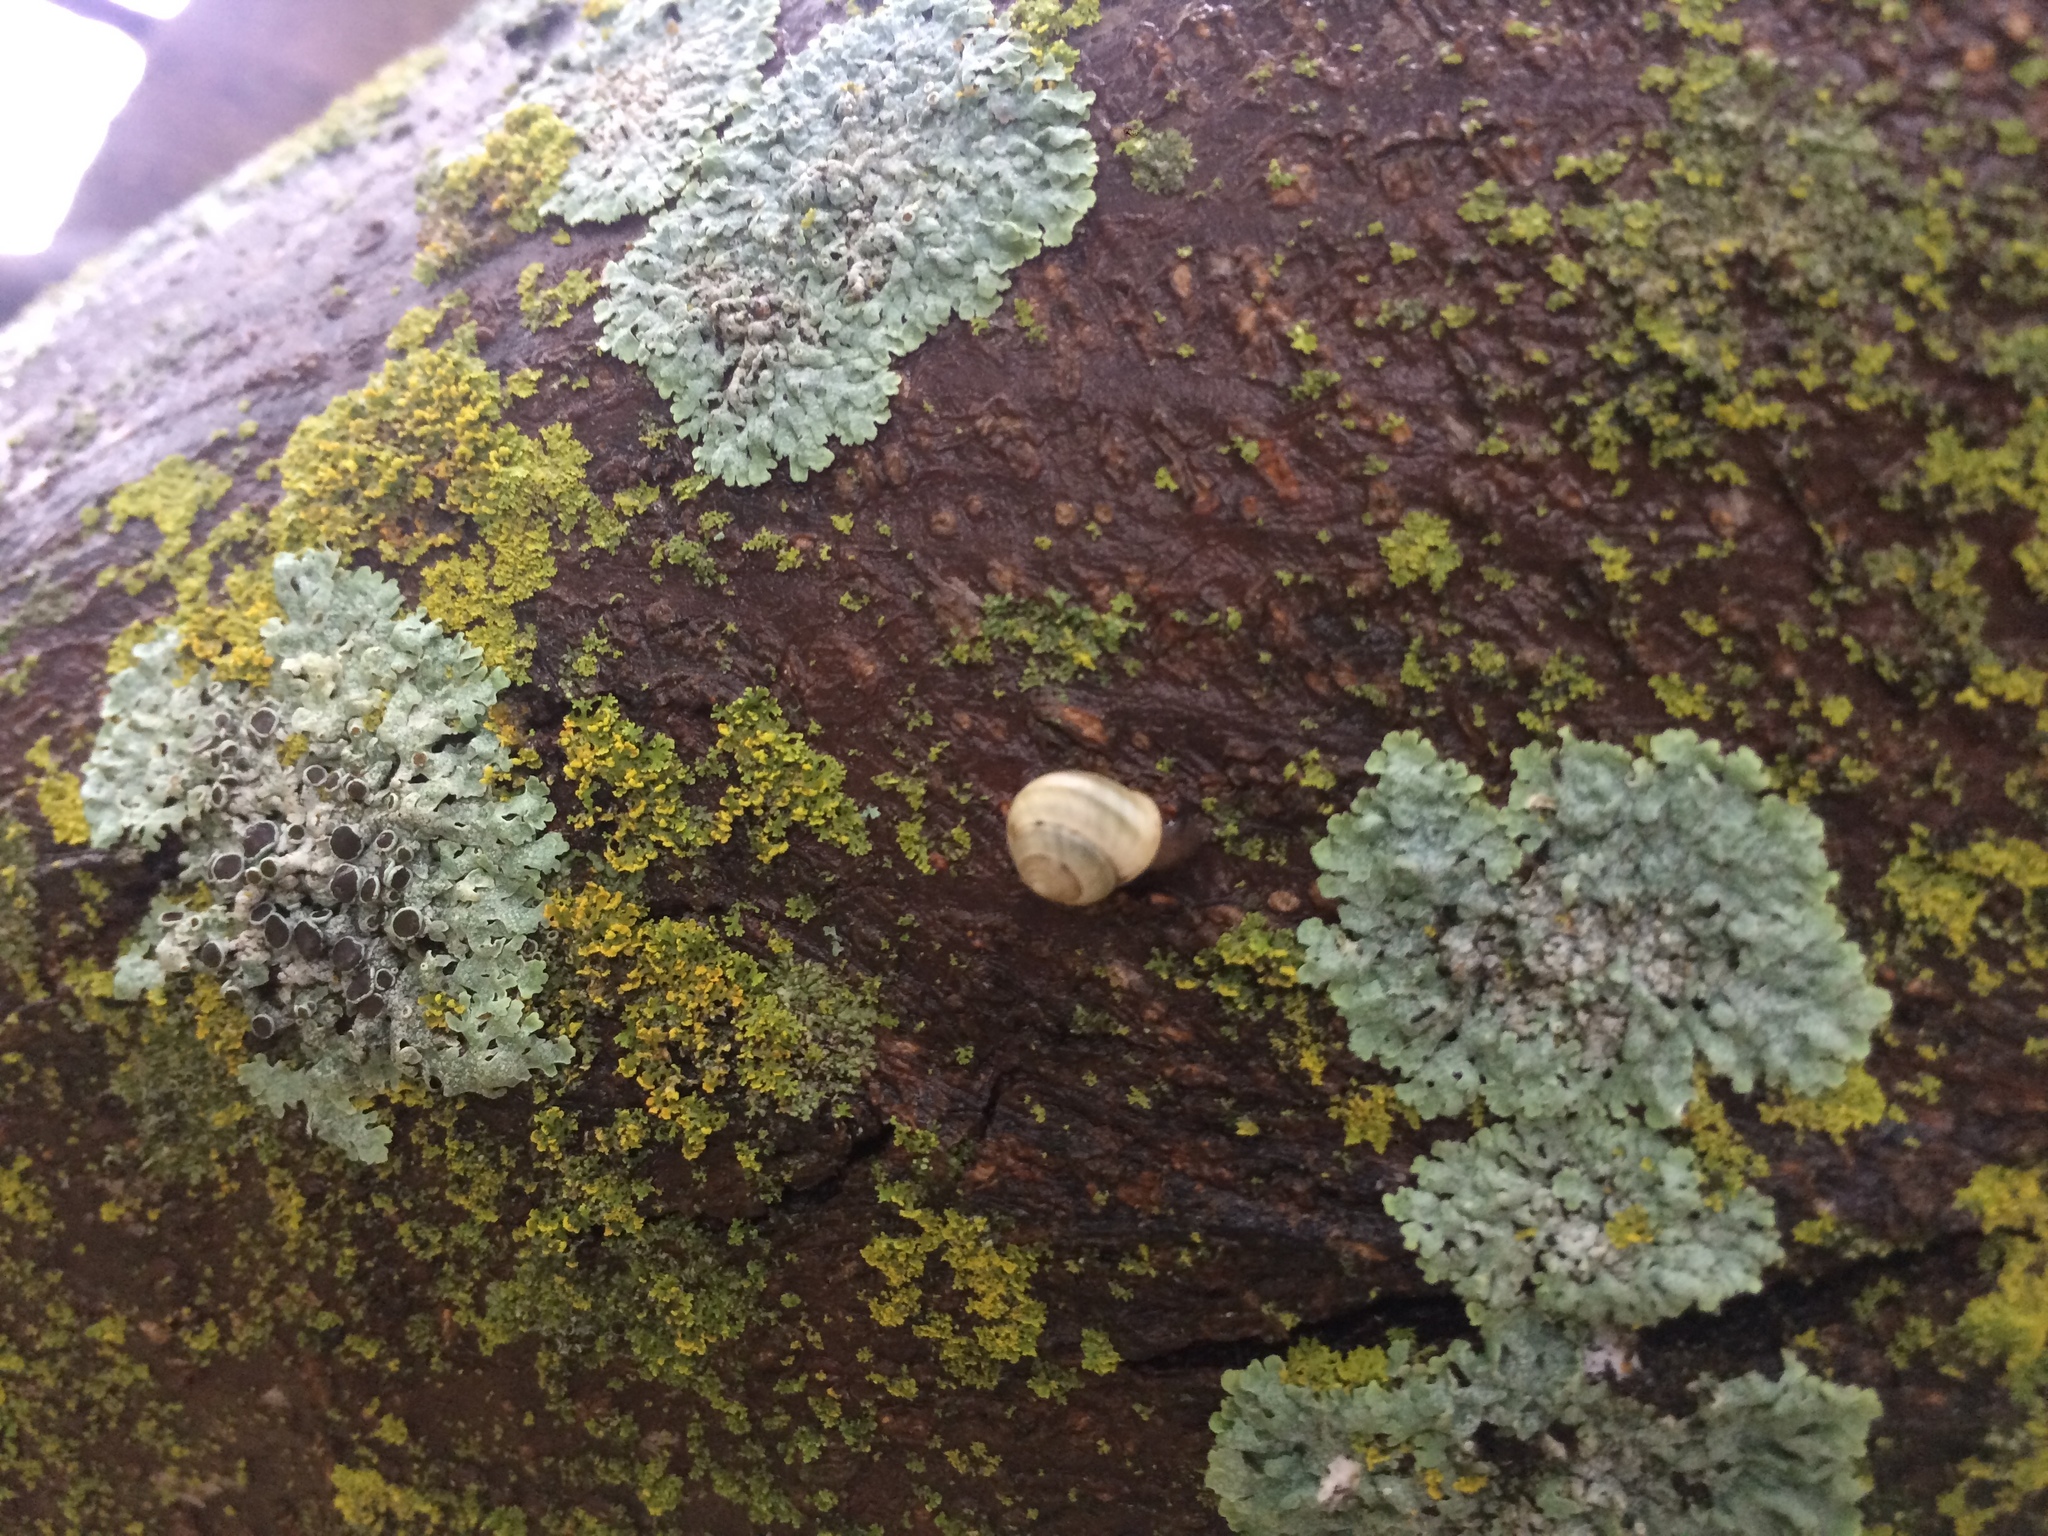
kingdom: Animalia
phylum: Mollusca
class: Gastropoda
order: Cycloneritida
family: Helicinidae
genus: Helicina
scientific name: Helicina orbiculata
